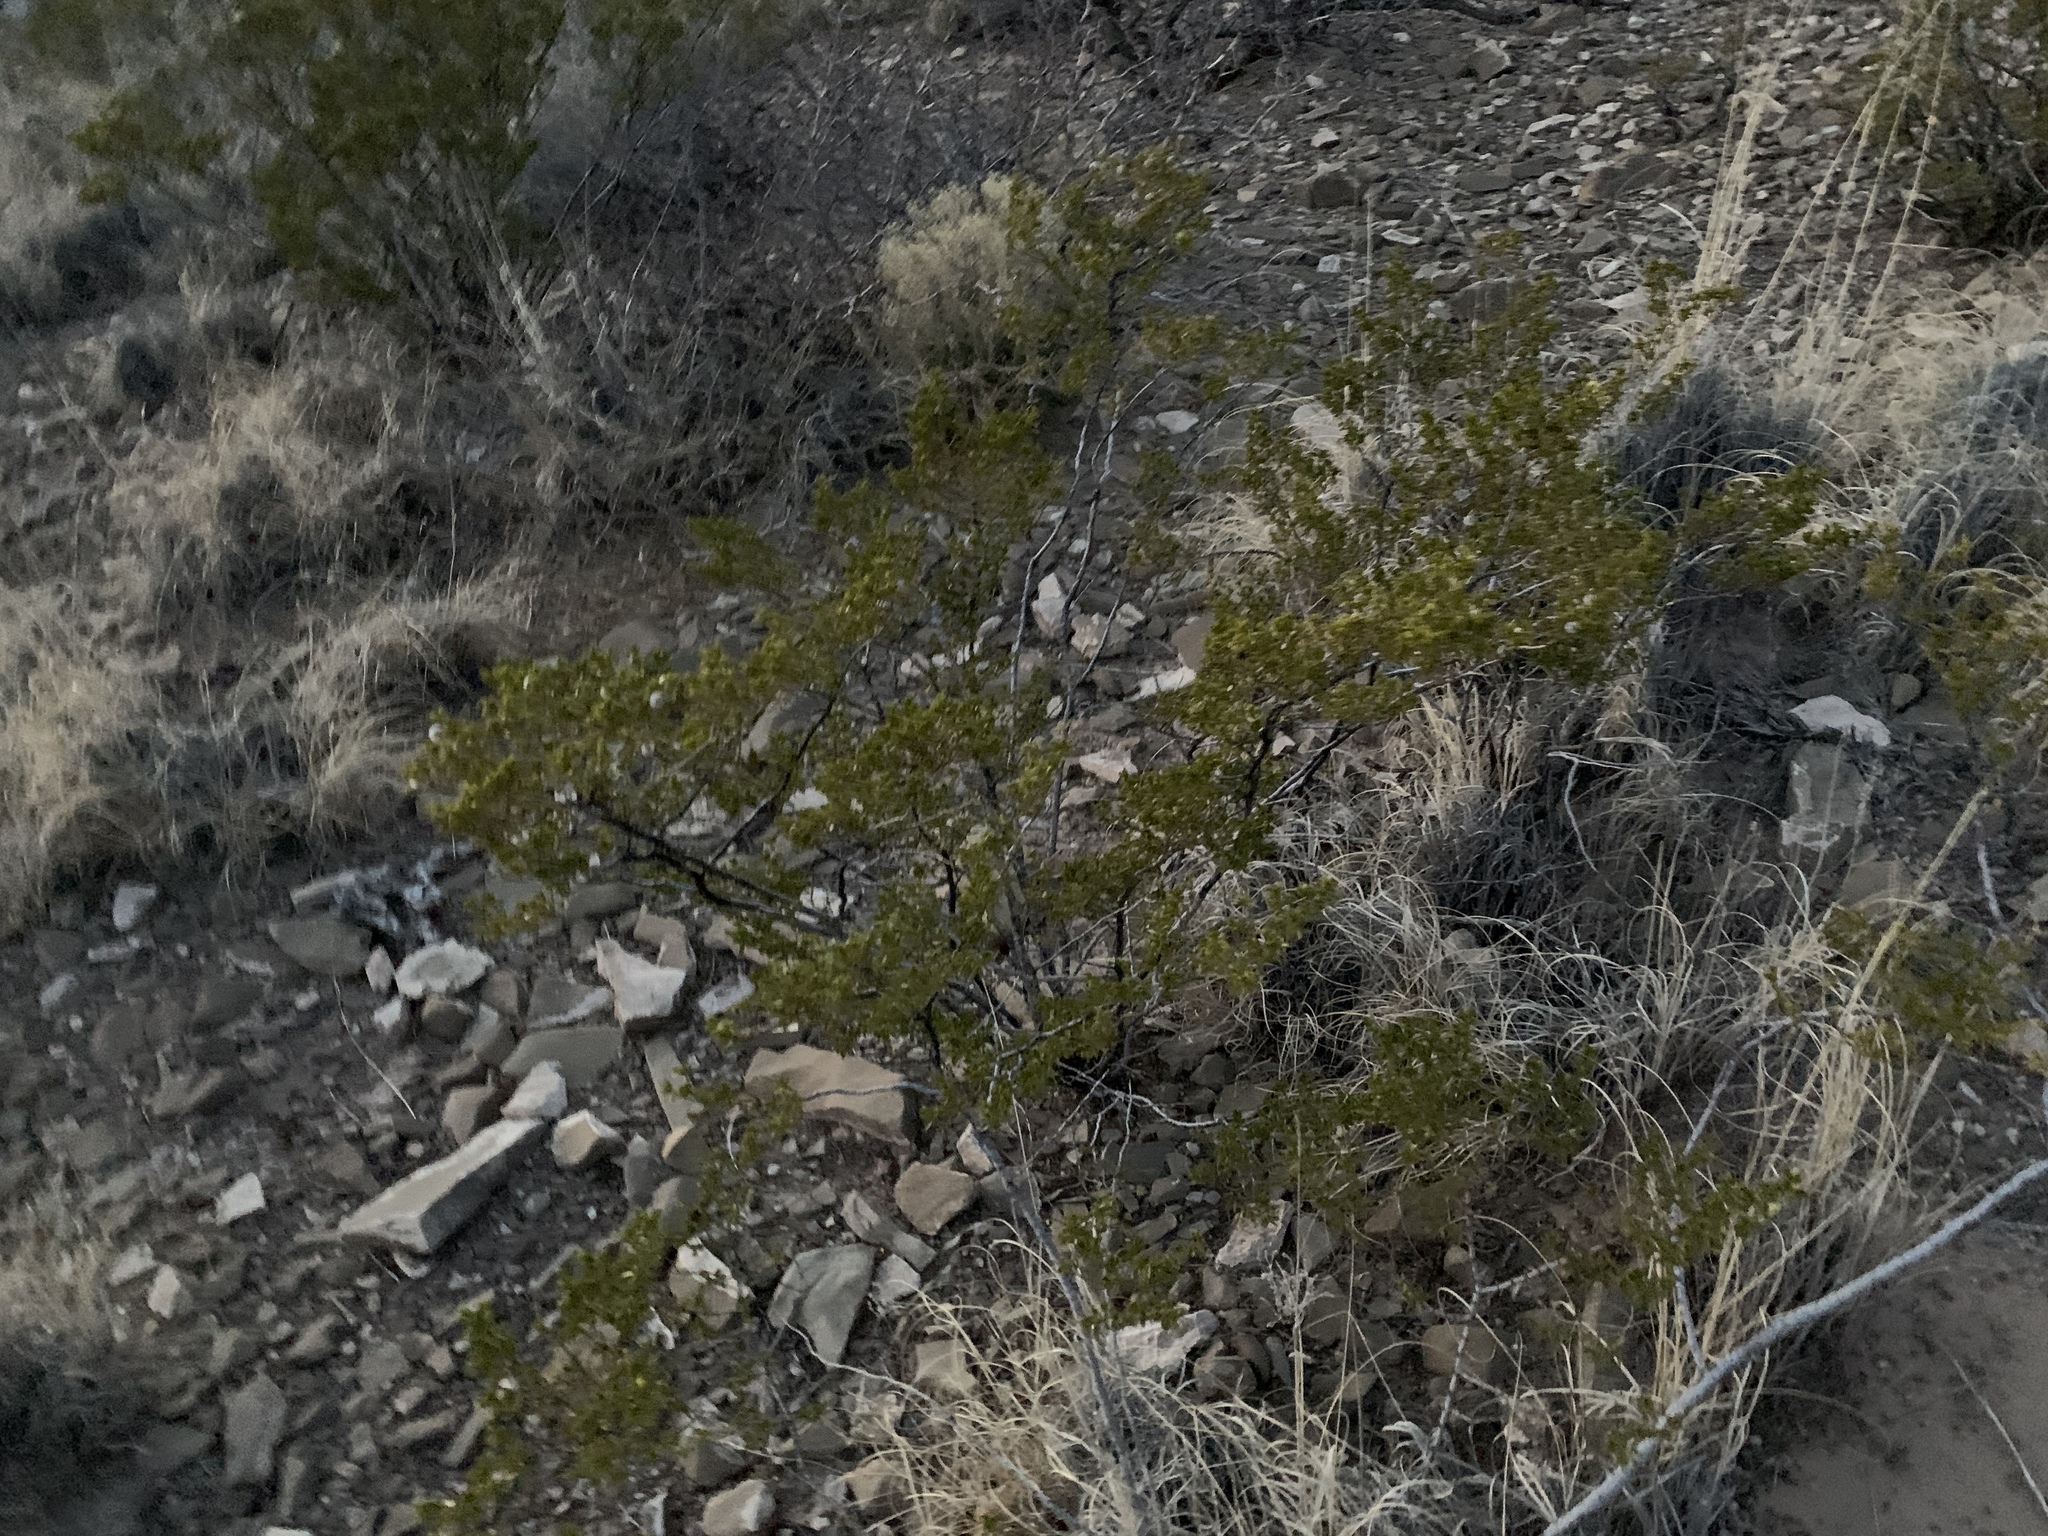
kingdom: Plantae
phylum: Tracheophyta
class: Magnoliopsida
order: Zygophyllales
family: Zygophyllaceae
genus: Larrea
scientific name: Larrea tridentata
